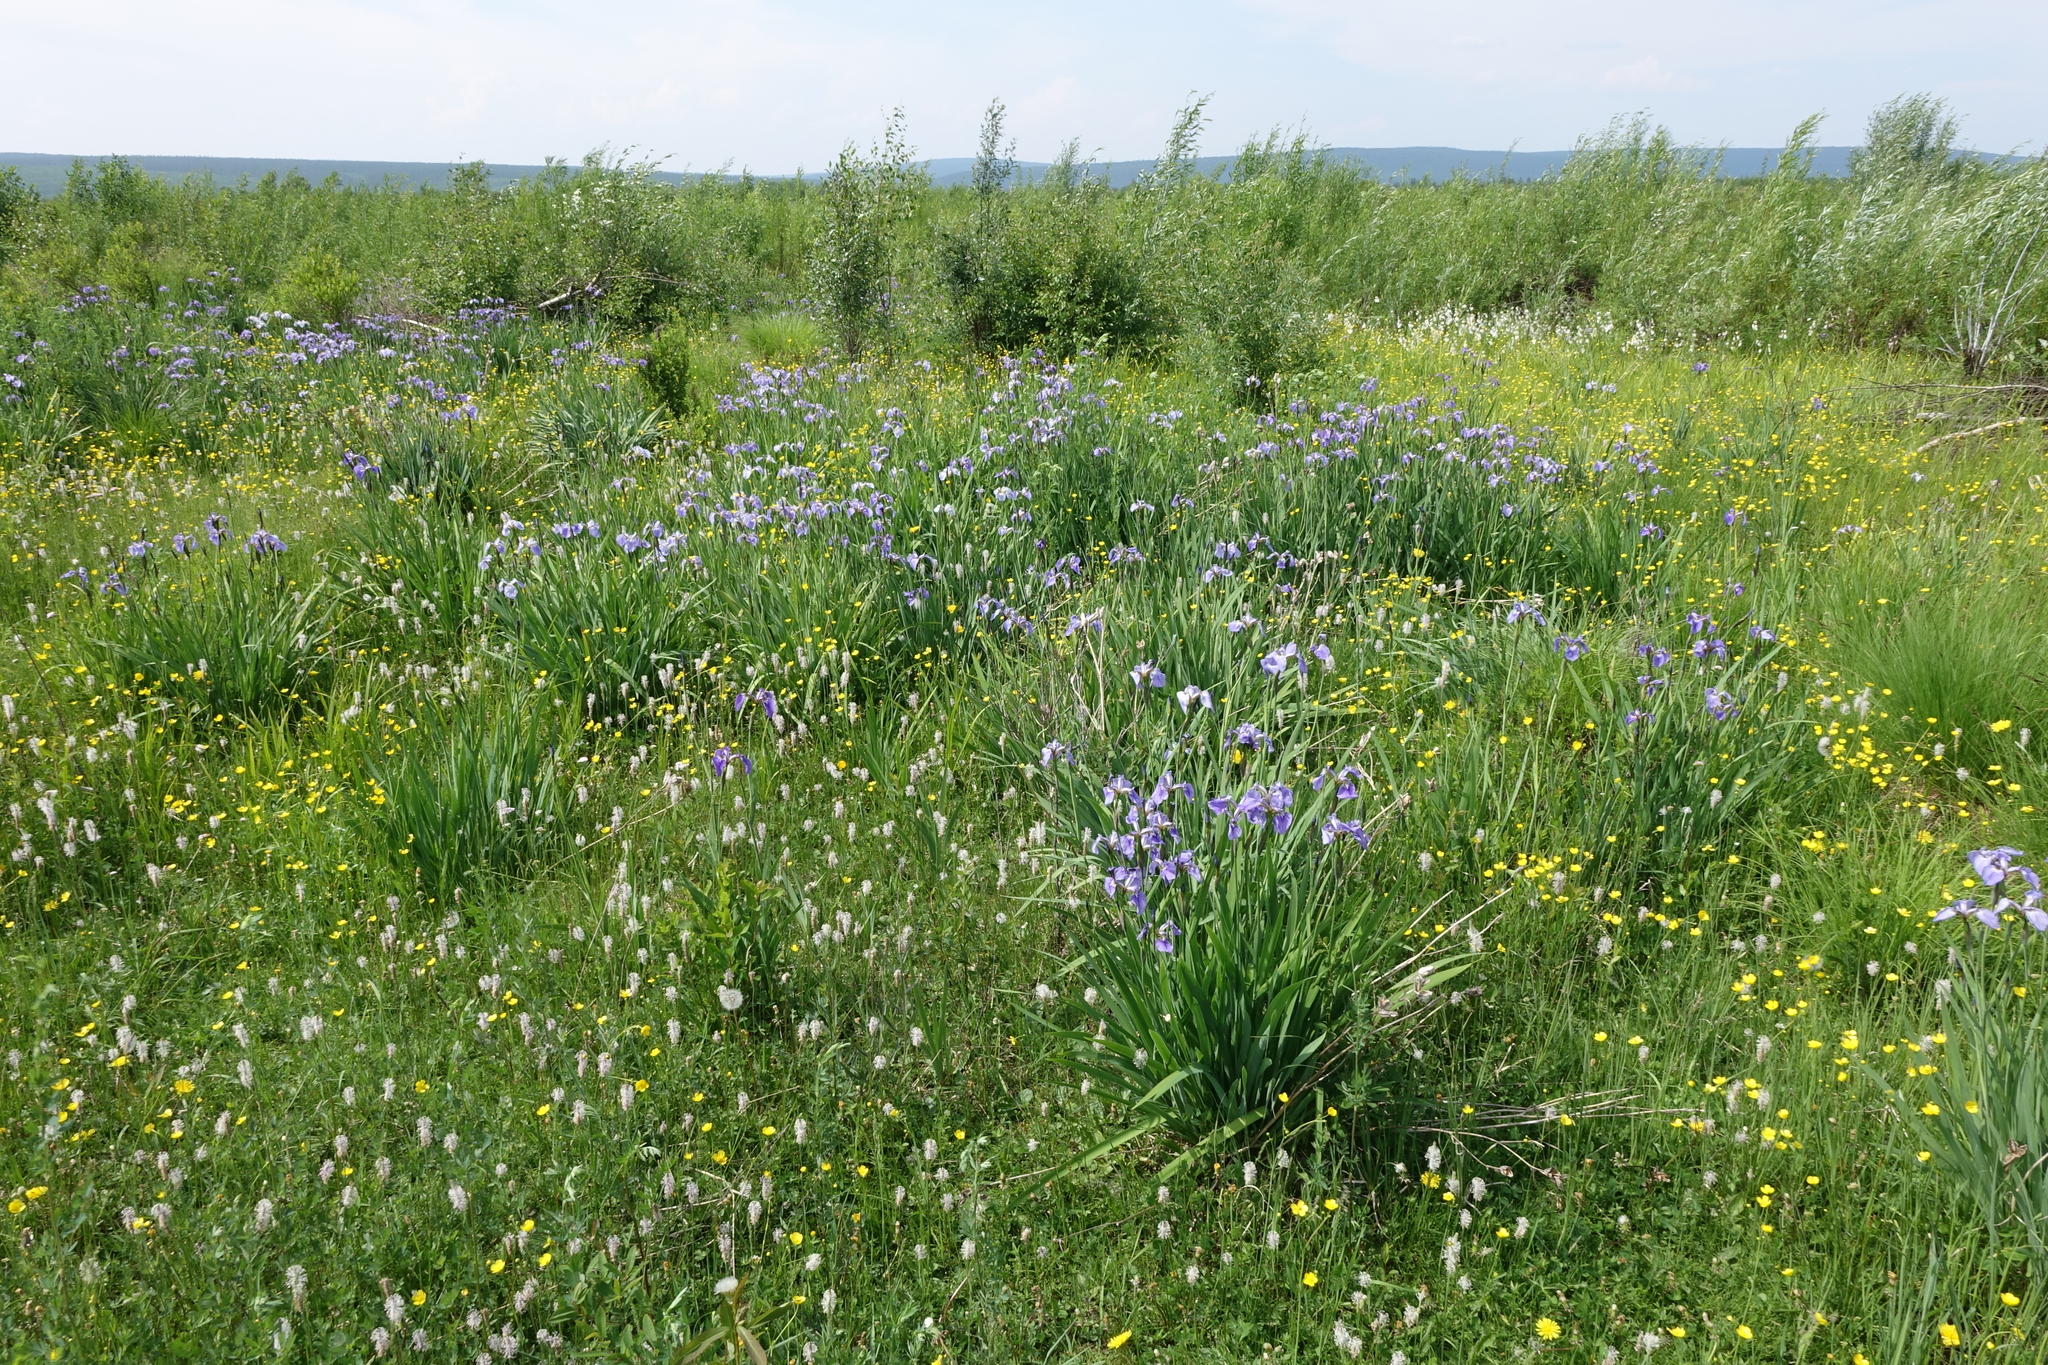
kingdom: Plantae
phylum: Tracheophyta
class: Liliopsida
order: Asparagales
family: Iridaceae
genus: Iris
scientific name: Iris setosa
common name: Arctic blue flag
